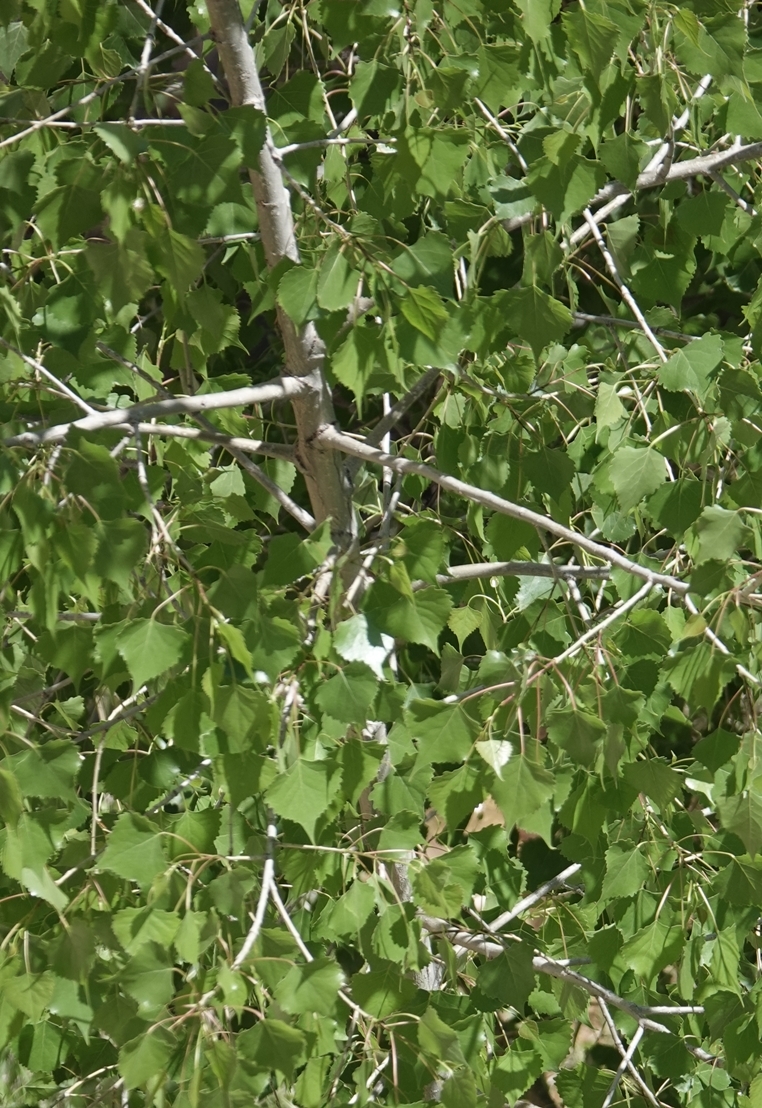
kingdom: Plantae
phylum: Tracheophyta
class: Magnoliopsida
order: Malpighiales
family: Salicaceae
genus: Populus
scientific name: Populus deltoides
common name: Eastern cottonwood
